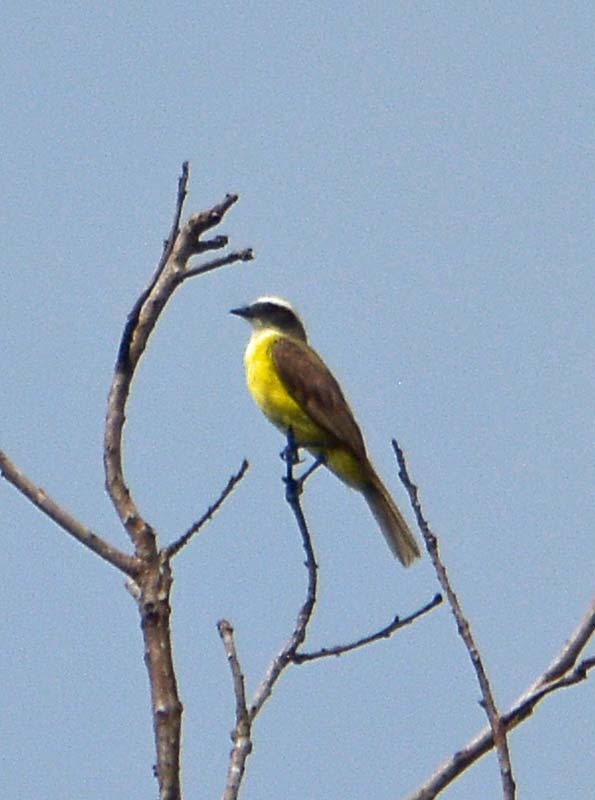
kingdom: Animalia
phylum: Chordata
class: Aves
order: Passeriformes
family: Tyrannidae
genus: Myiozetetes
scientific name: Myiozetetes similis
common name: Social flycatcher
